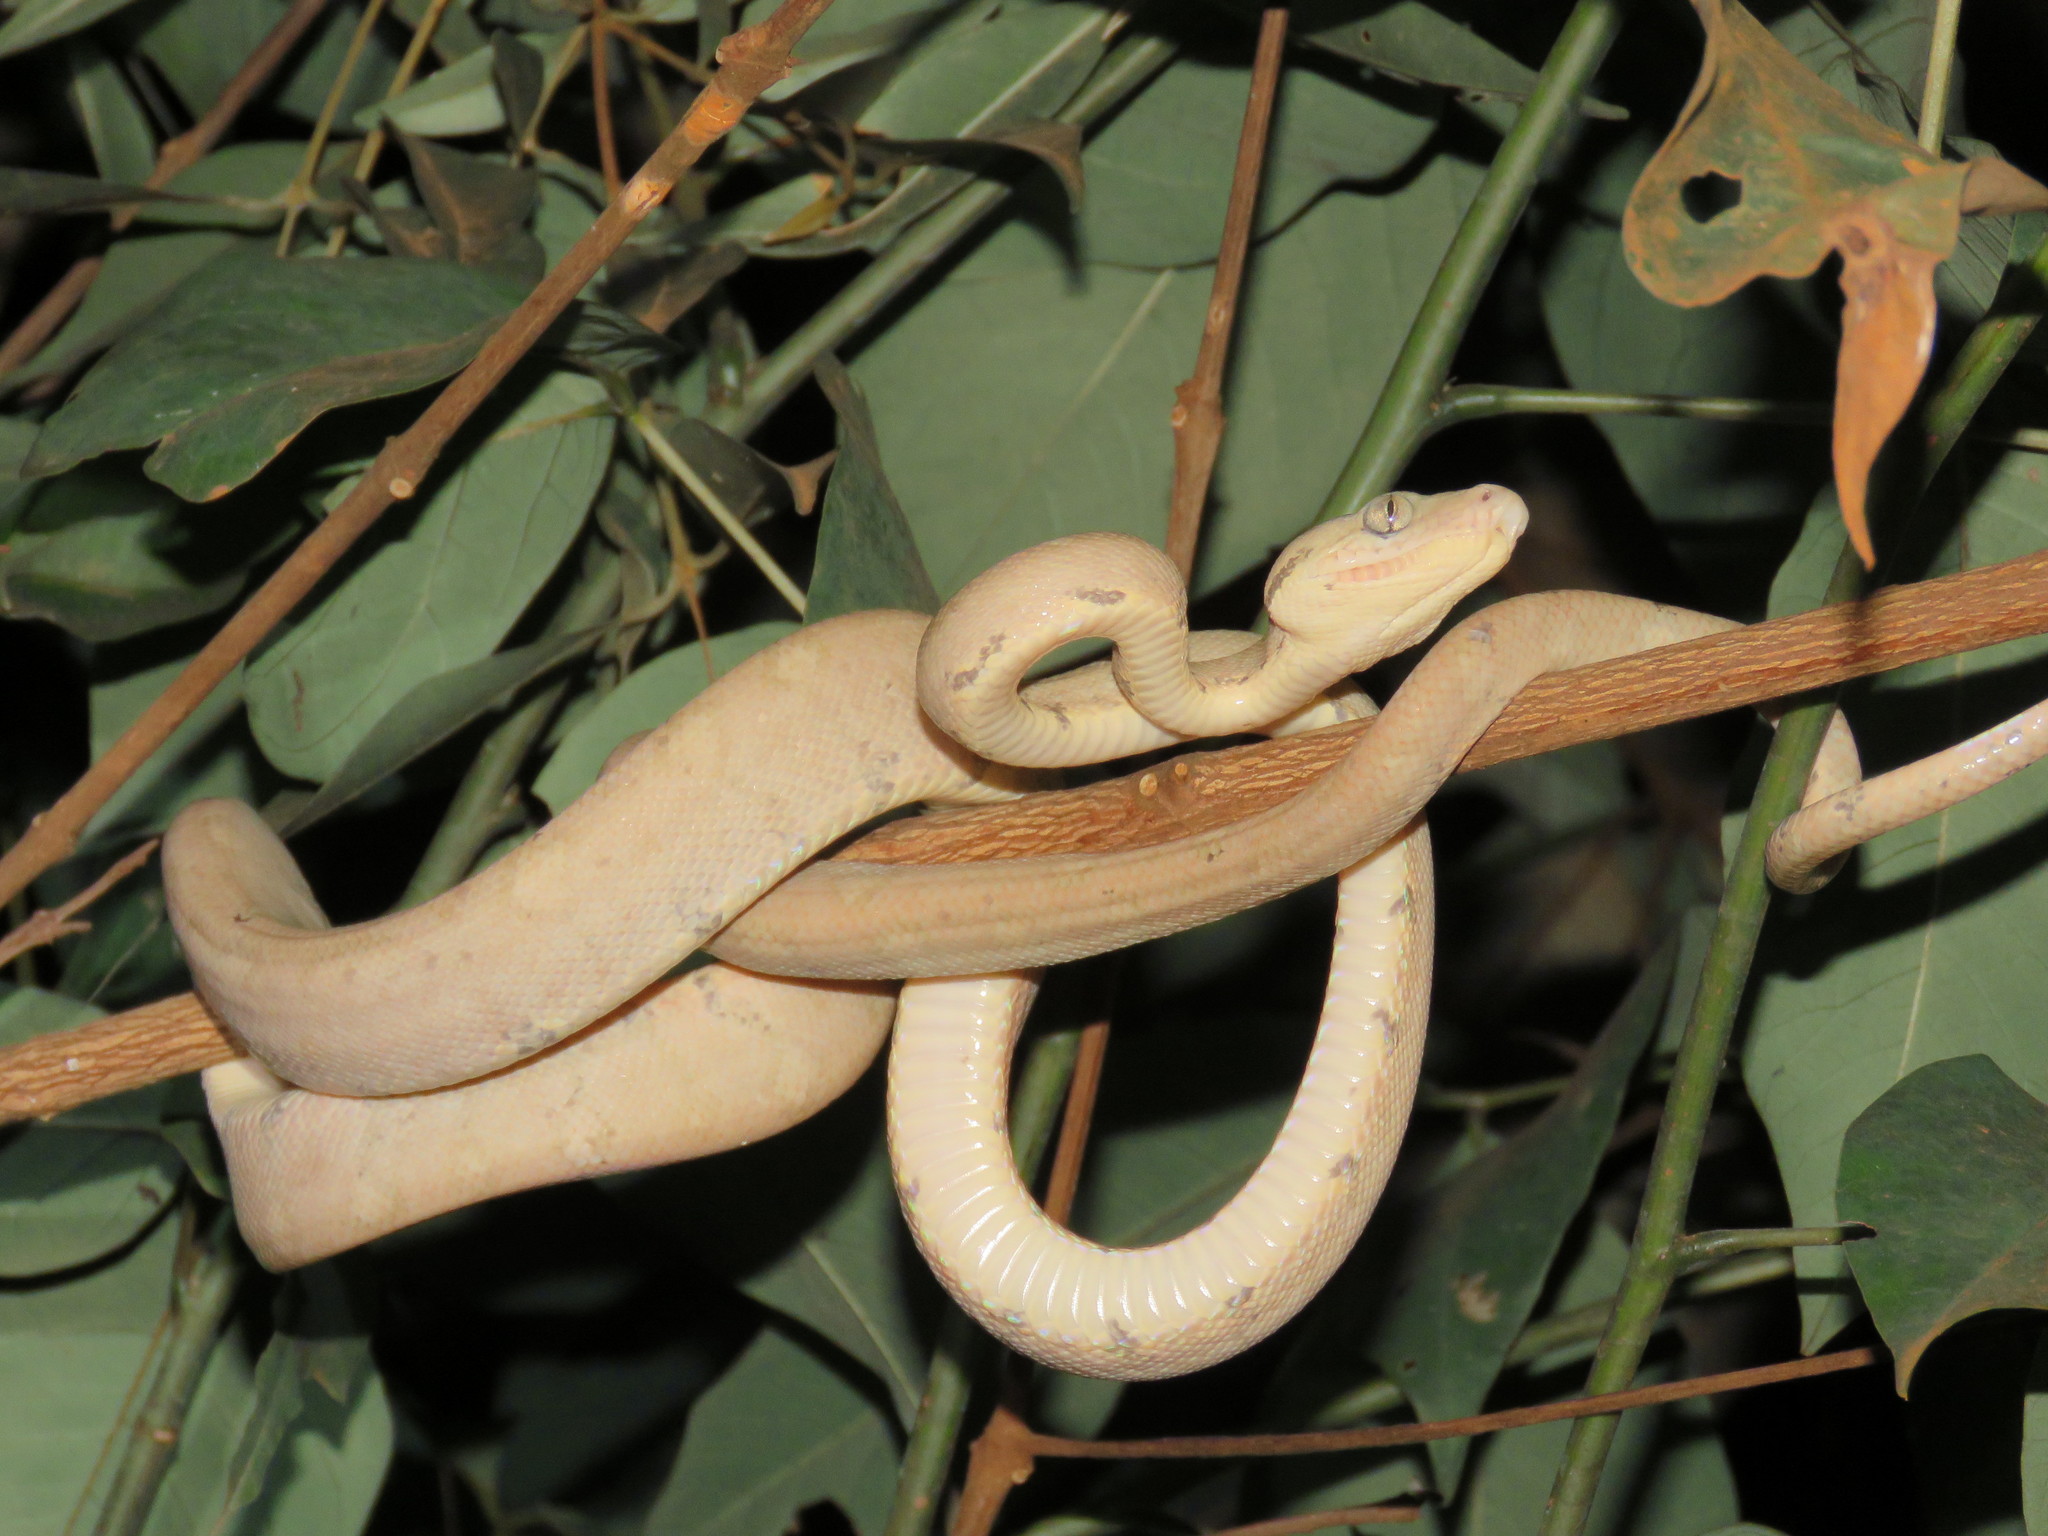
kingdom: Animalia
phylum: Chordata
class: Squamata
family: Boidae
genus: Corallus
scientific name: Corallus hortulana
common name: Garden tree boa
